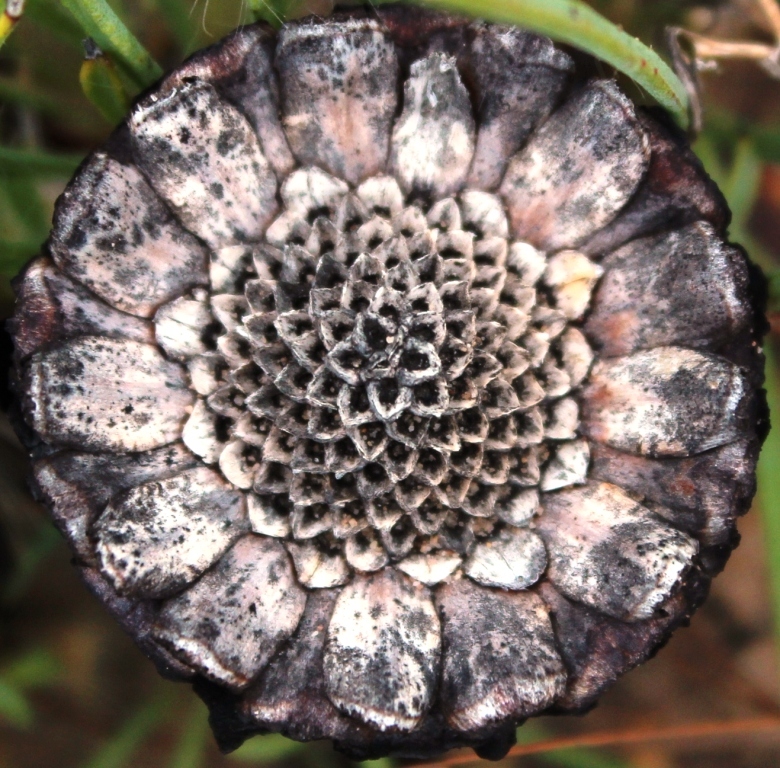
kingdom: Plantae
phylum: Tracheophyta
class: Magnoliopsida
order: Proteales
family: Proteaceae
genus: Protea
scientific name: Protea piscina
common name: Visgat sugarbush
